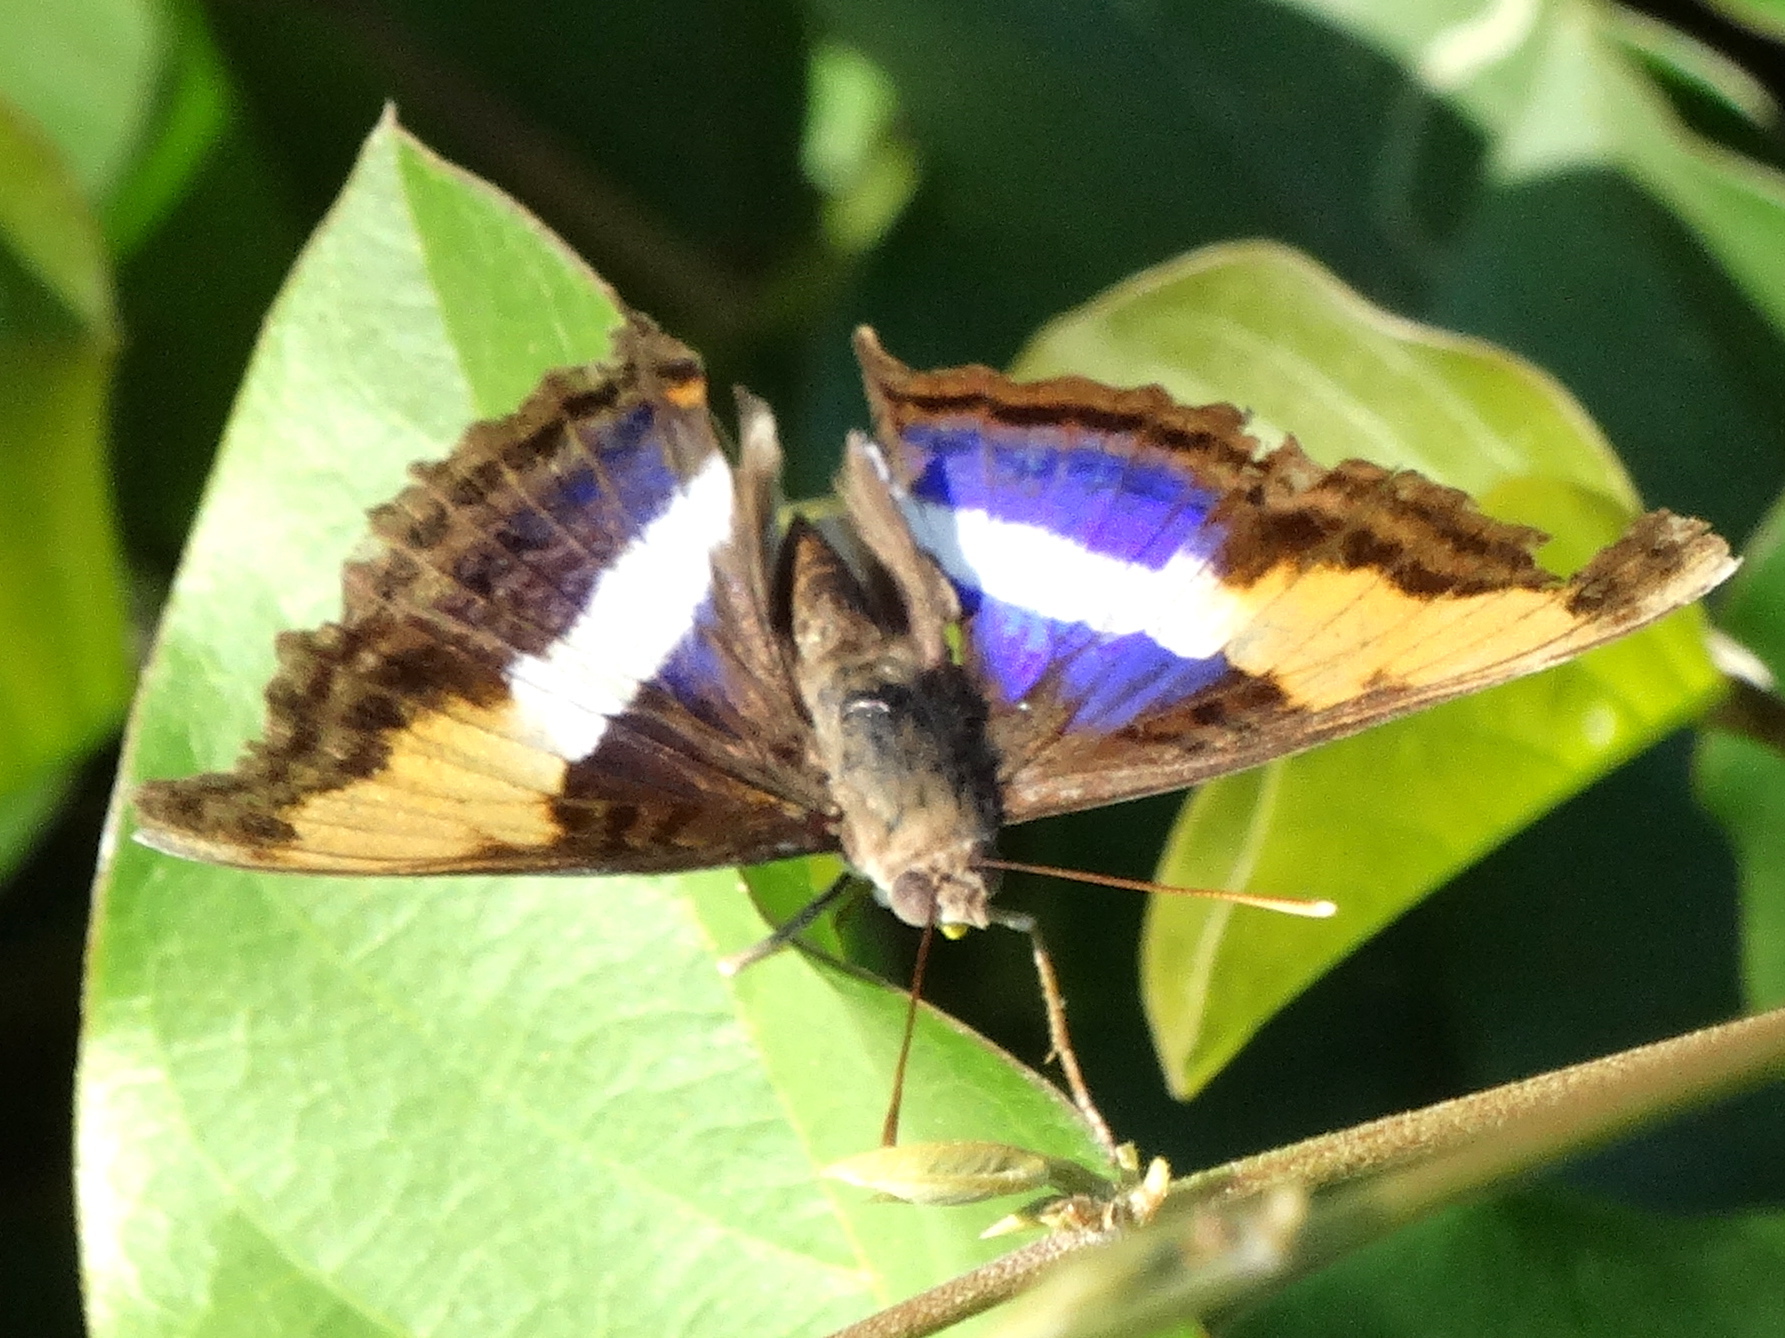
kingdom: Animalia
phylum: Arthropoda
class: Insecta
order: Lepidoptera
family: Nymphalidae
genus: Doxocopa
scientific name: Doxocopa laure
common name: Silver emperor
